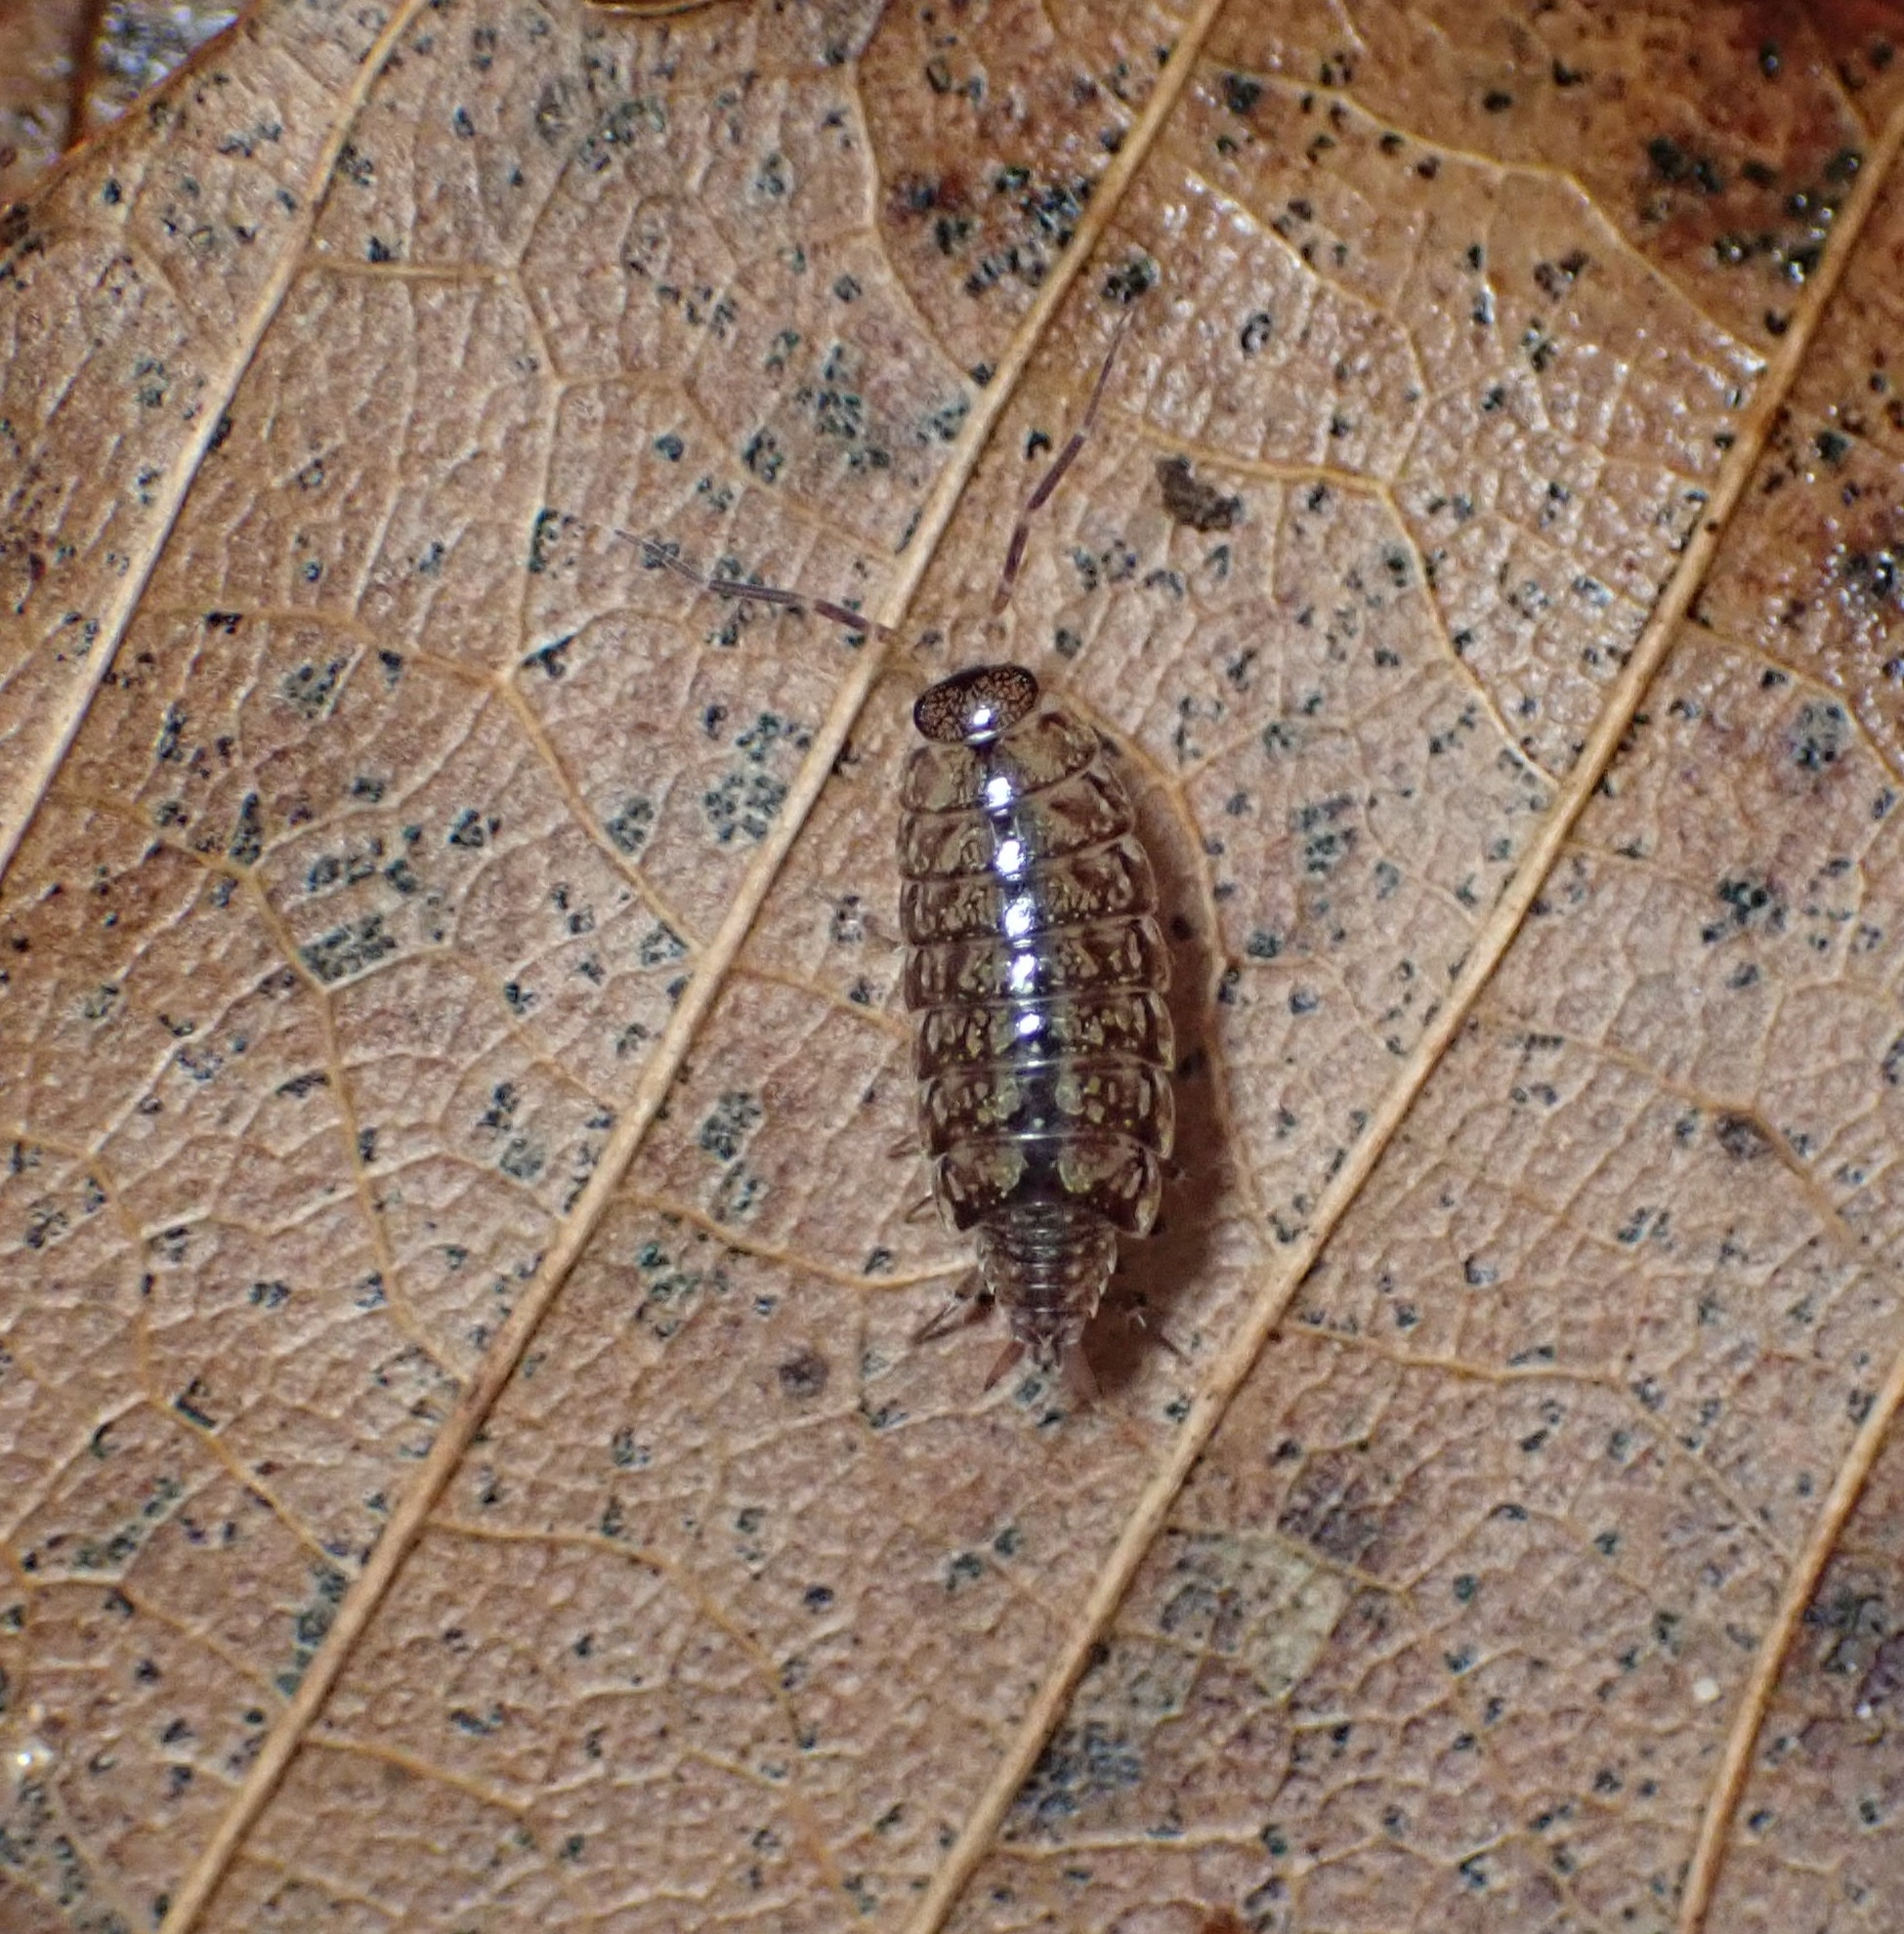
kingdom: Animalia
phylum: Arthropoda
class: Malacostraca
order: Isopoda
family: Philosciidae
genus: Philoscia
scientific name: Philoscia affinis
